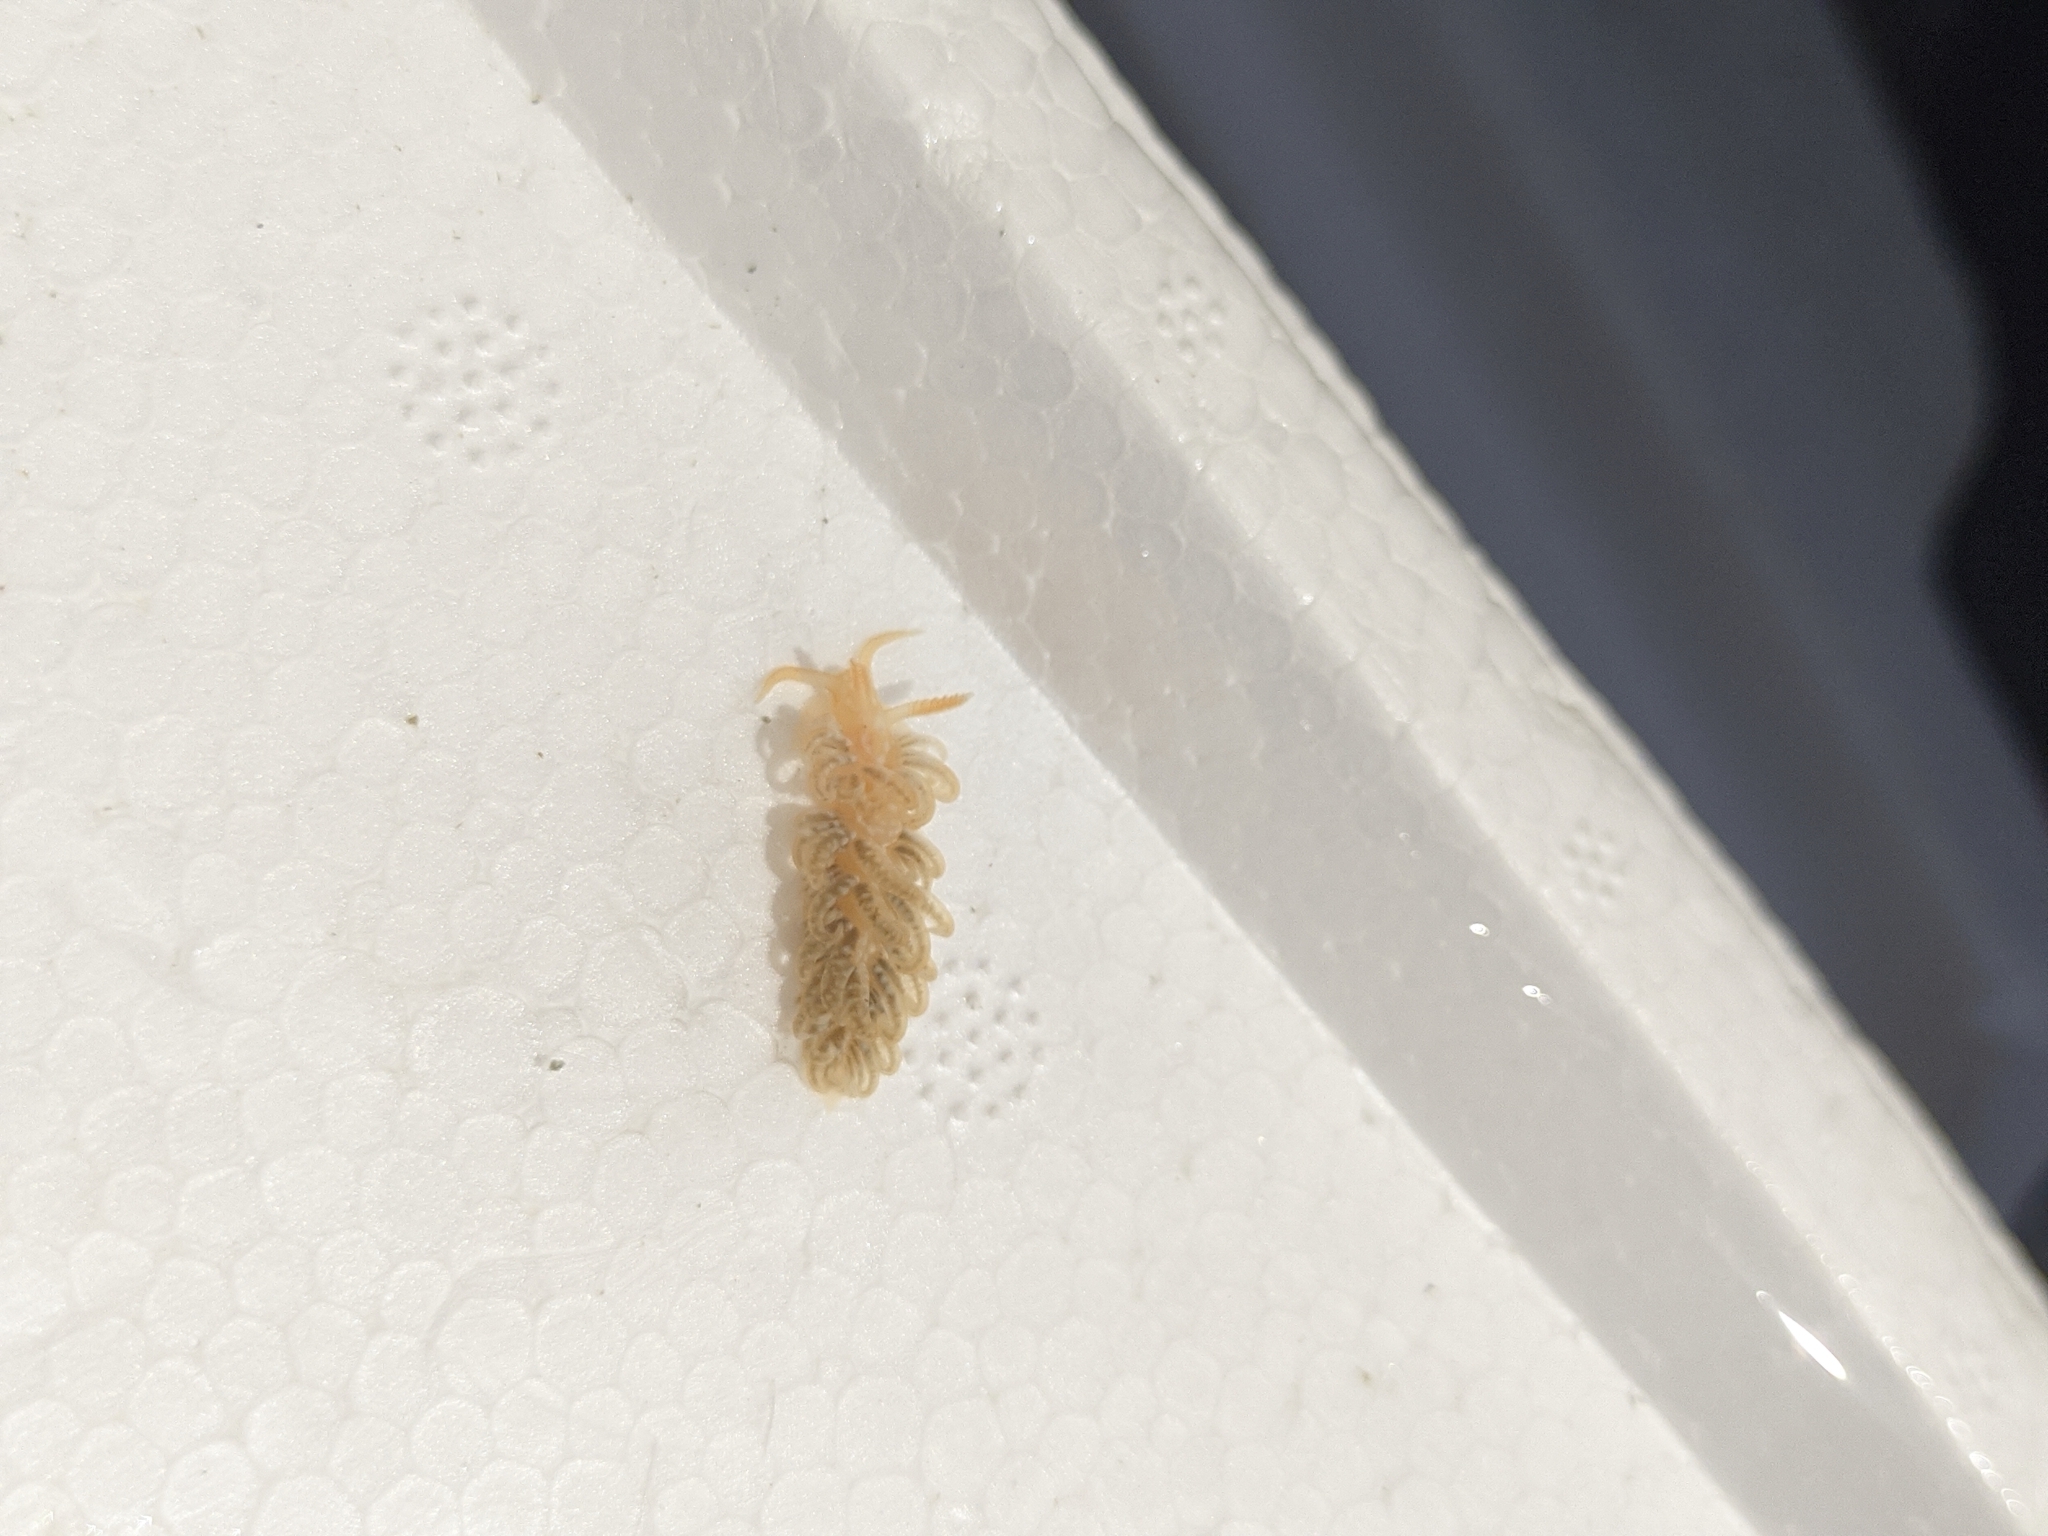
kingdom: Animalia
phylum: Mollusca
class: Gastropoda
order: Nudibranchia
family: Aeolidiidae
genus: Spurilla
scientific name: Spurilla braziliana
